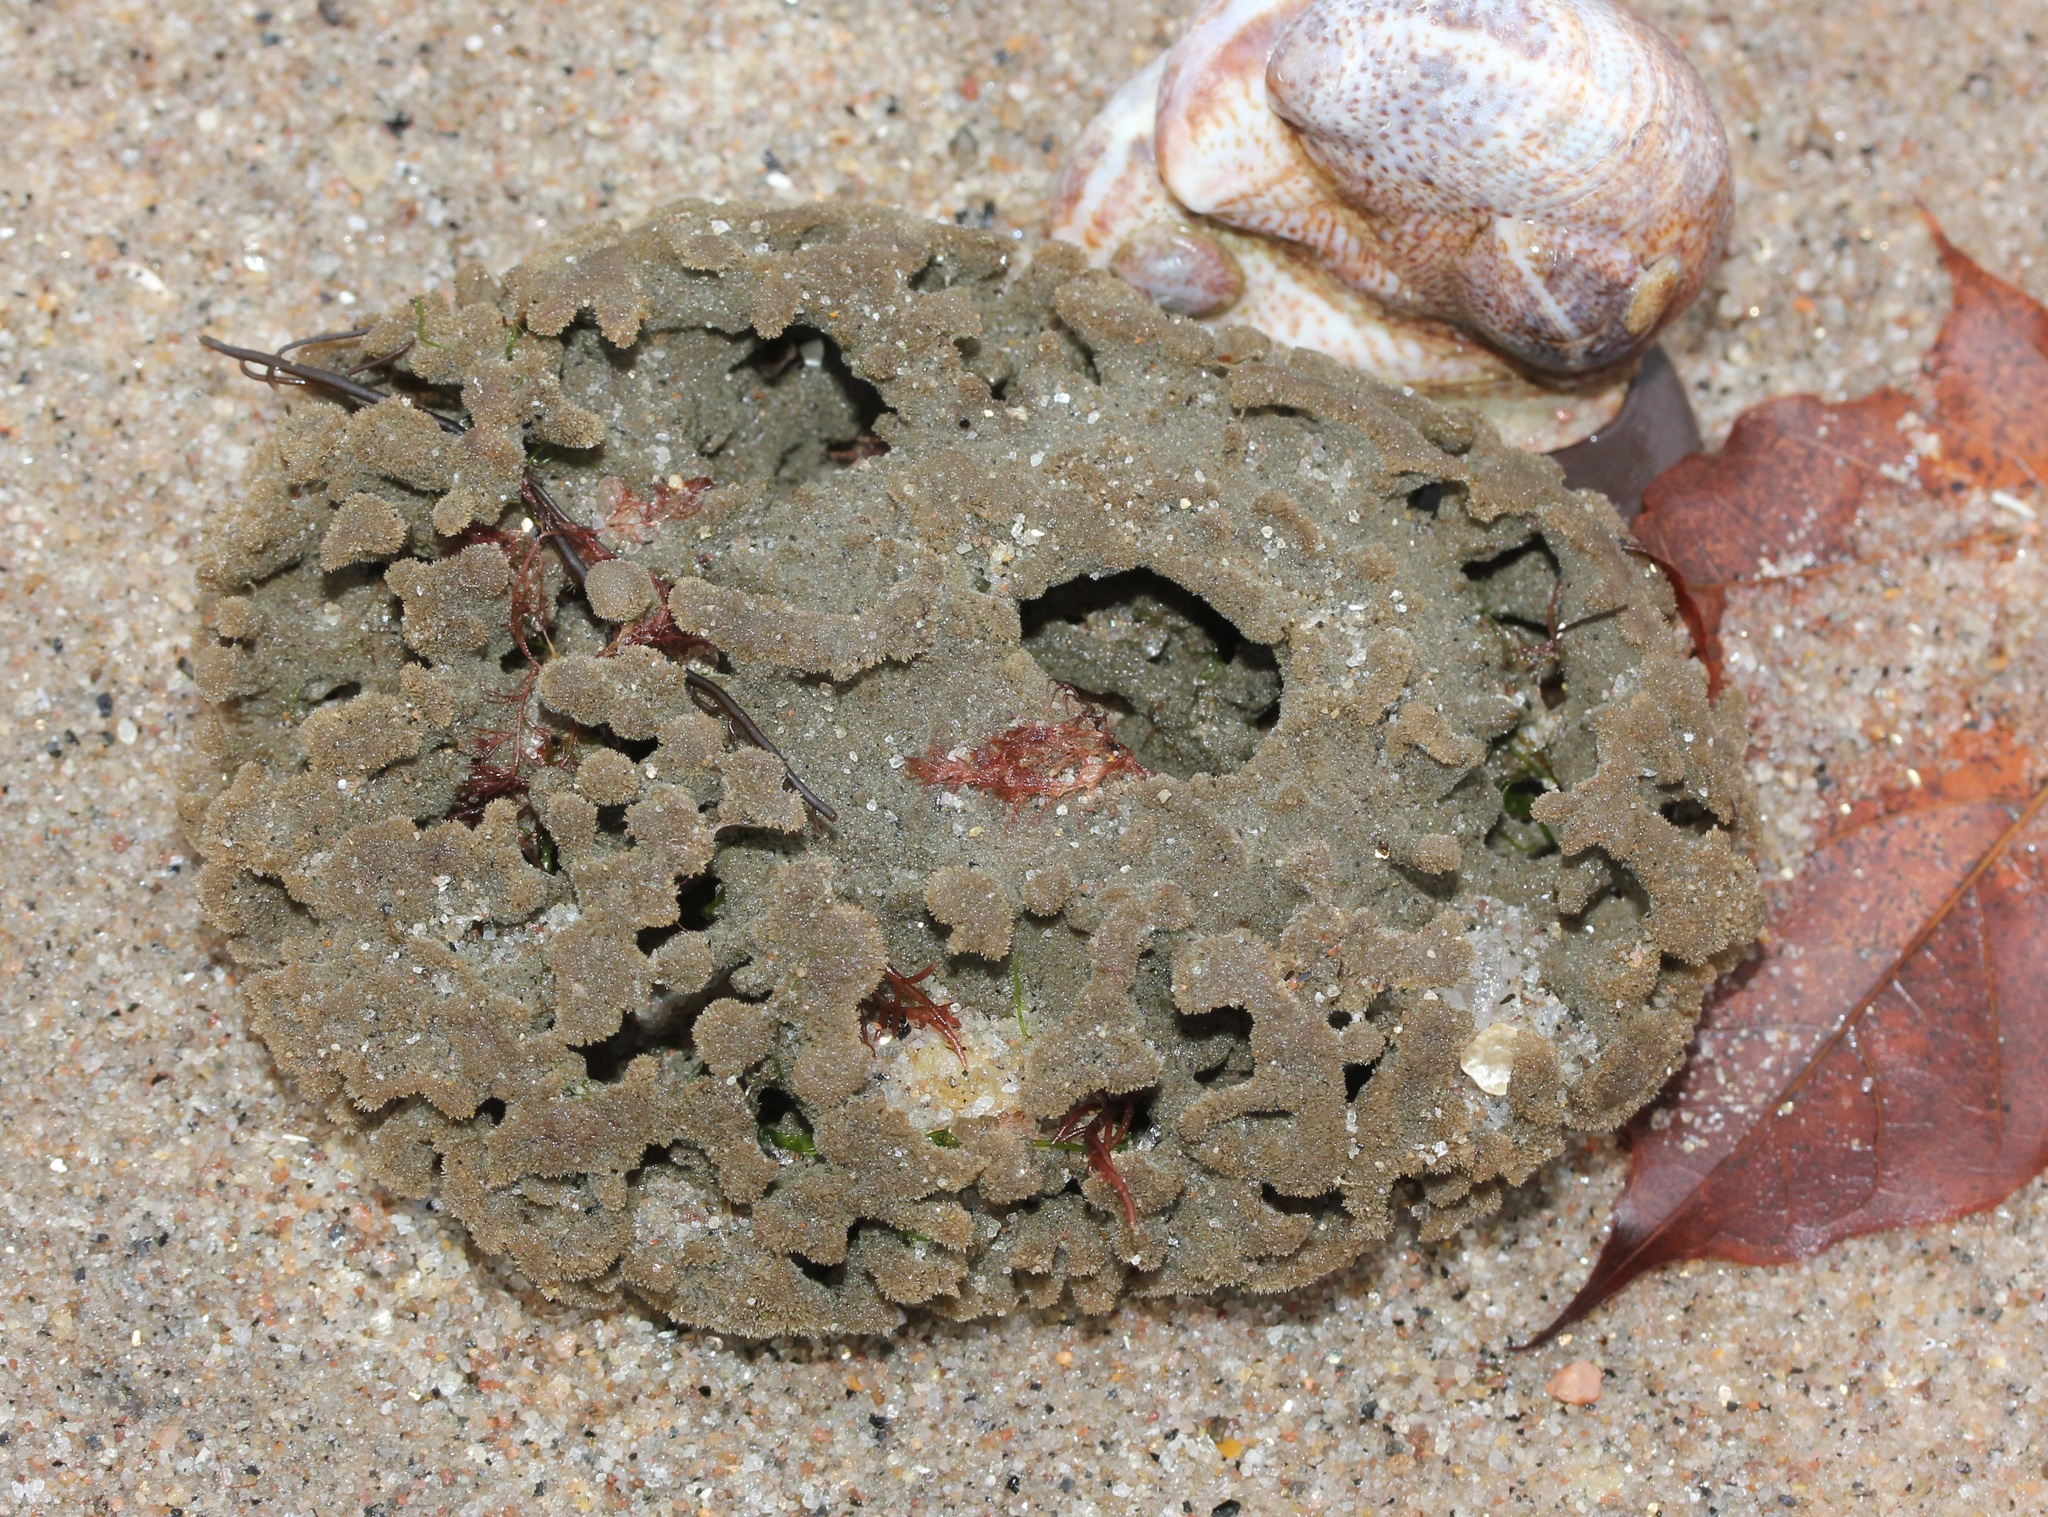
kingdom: Animalia
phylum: Porifera
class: Demospongiae
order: Poecilosclerida
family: Microcionidae
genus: Clathria
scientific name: Clathria prolifera
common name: Red beard sponge
